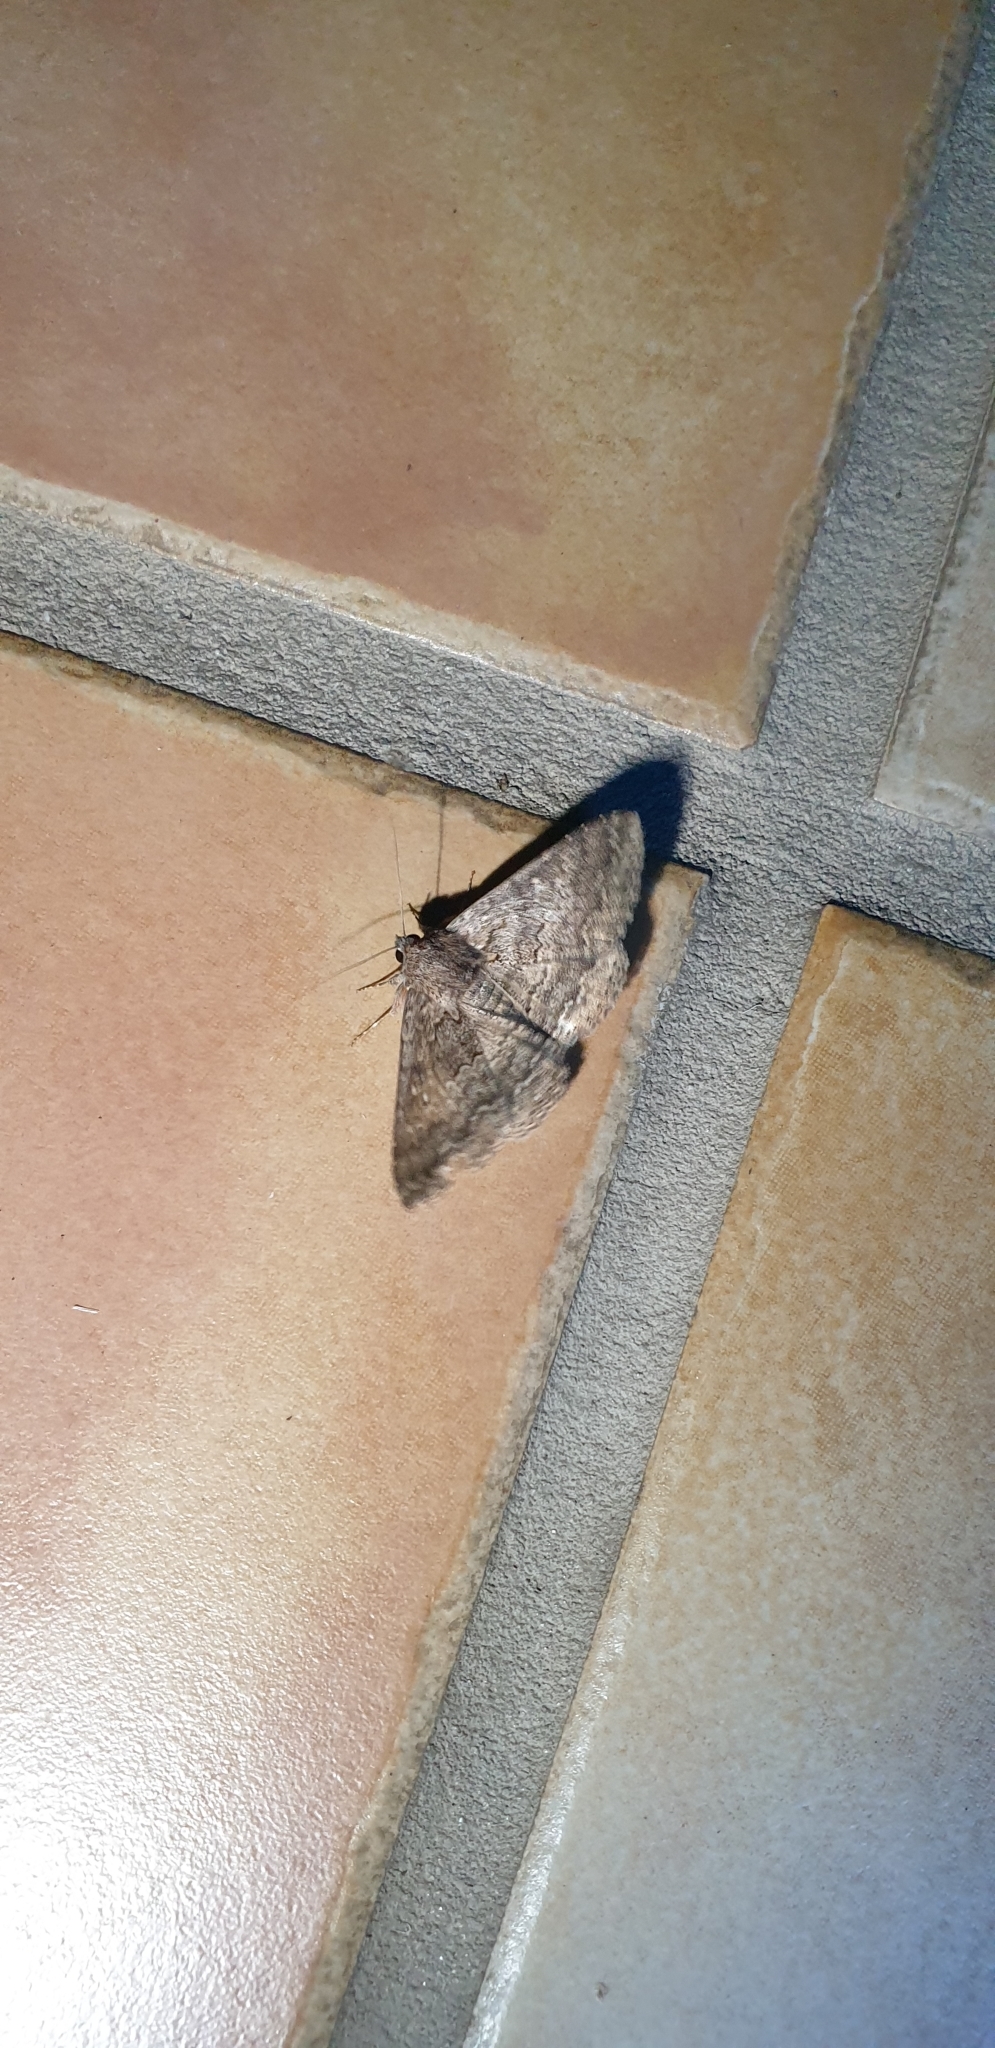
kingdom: Animalia
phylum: Arthropoda
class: Insecta
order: Lepidoptera
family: Erebidae
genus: Eudesmeola
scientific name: Eudesmeola lawsoni
